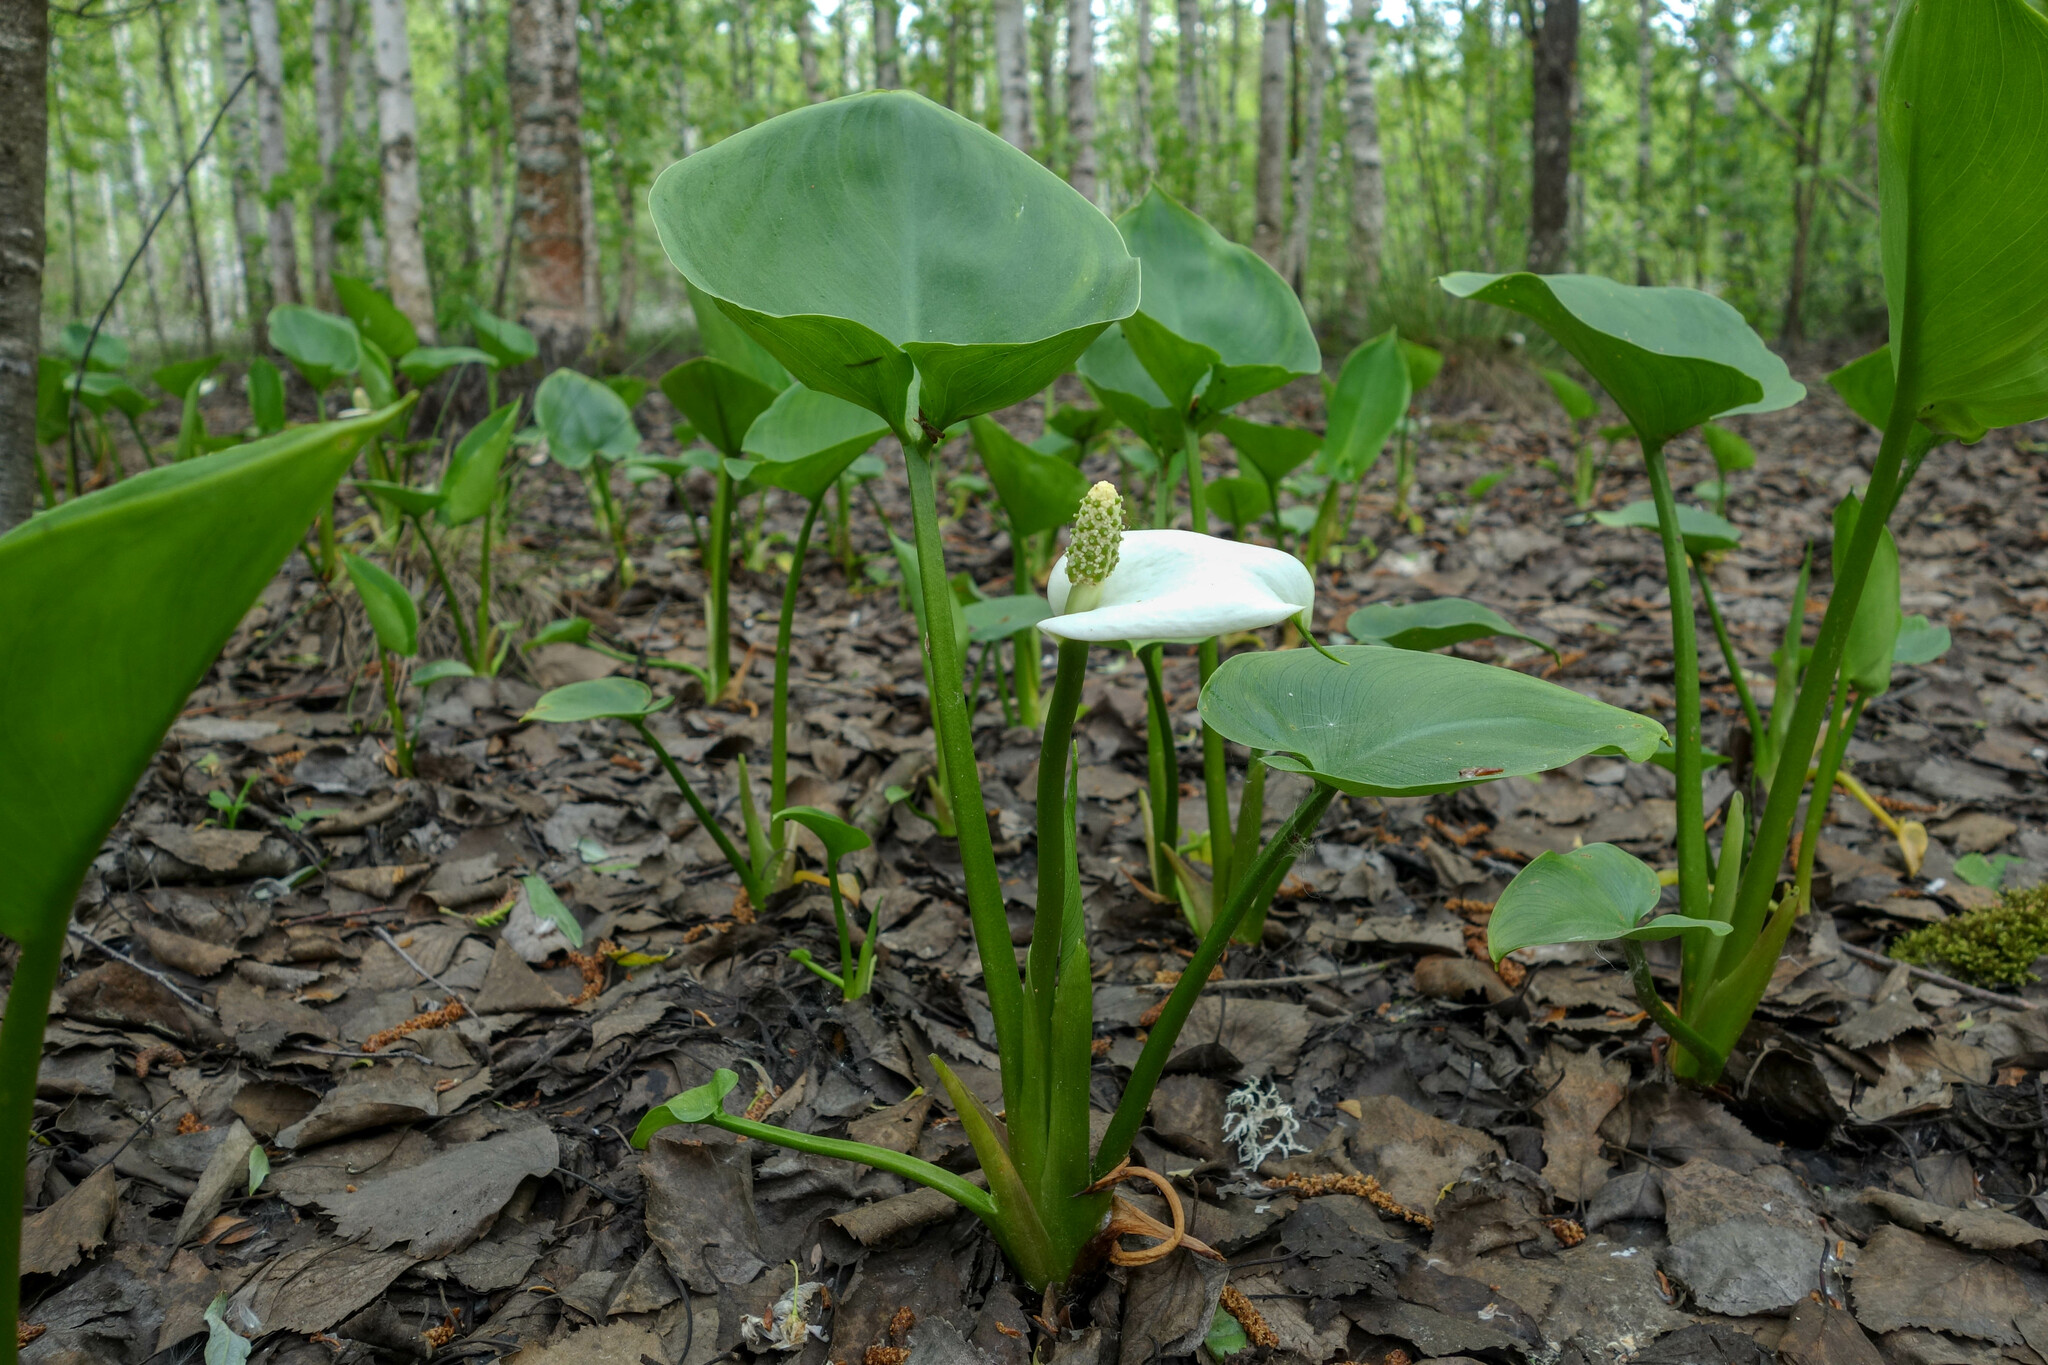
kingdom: Plantae
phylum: Tracheophyta
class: Liliopsida
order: Alismatales
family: Araceae
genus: Calla
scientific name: Calla palustris
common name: Bog arum
